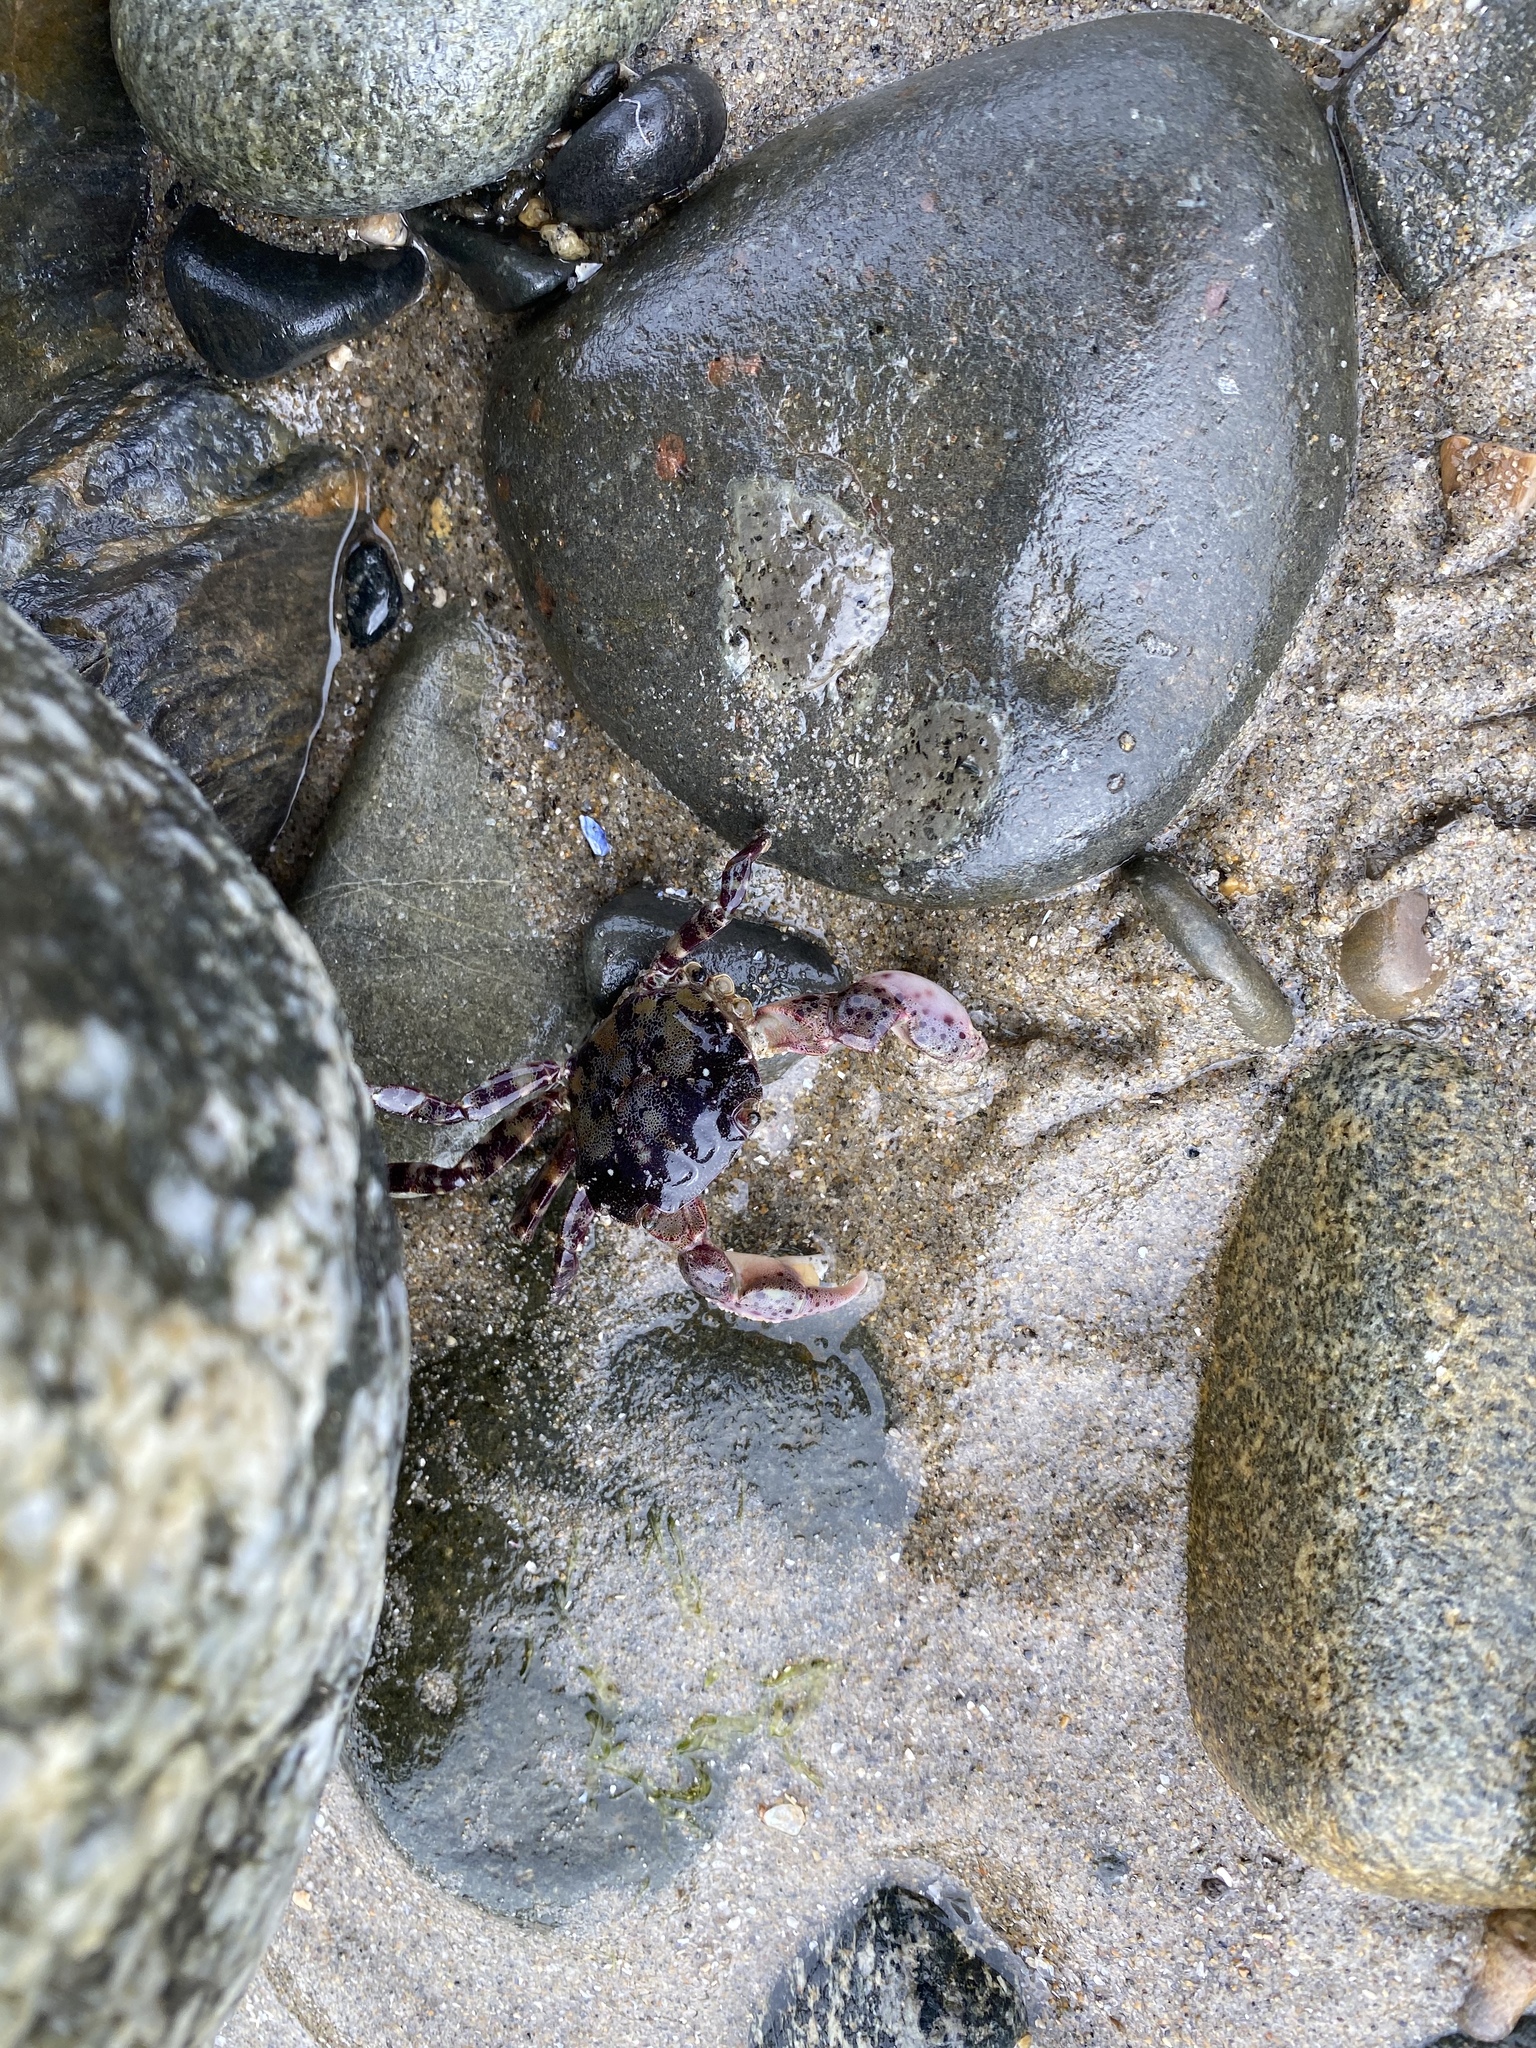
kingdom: Animalia
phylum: Arthropoda
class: Malacostraca
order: Decapoda
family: Varunidae
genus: Hemigrapsus
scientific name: Hemigrapsus sanguineus
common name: Asian shore crab
